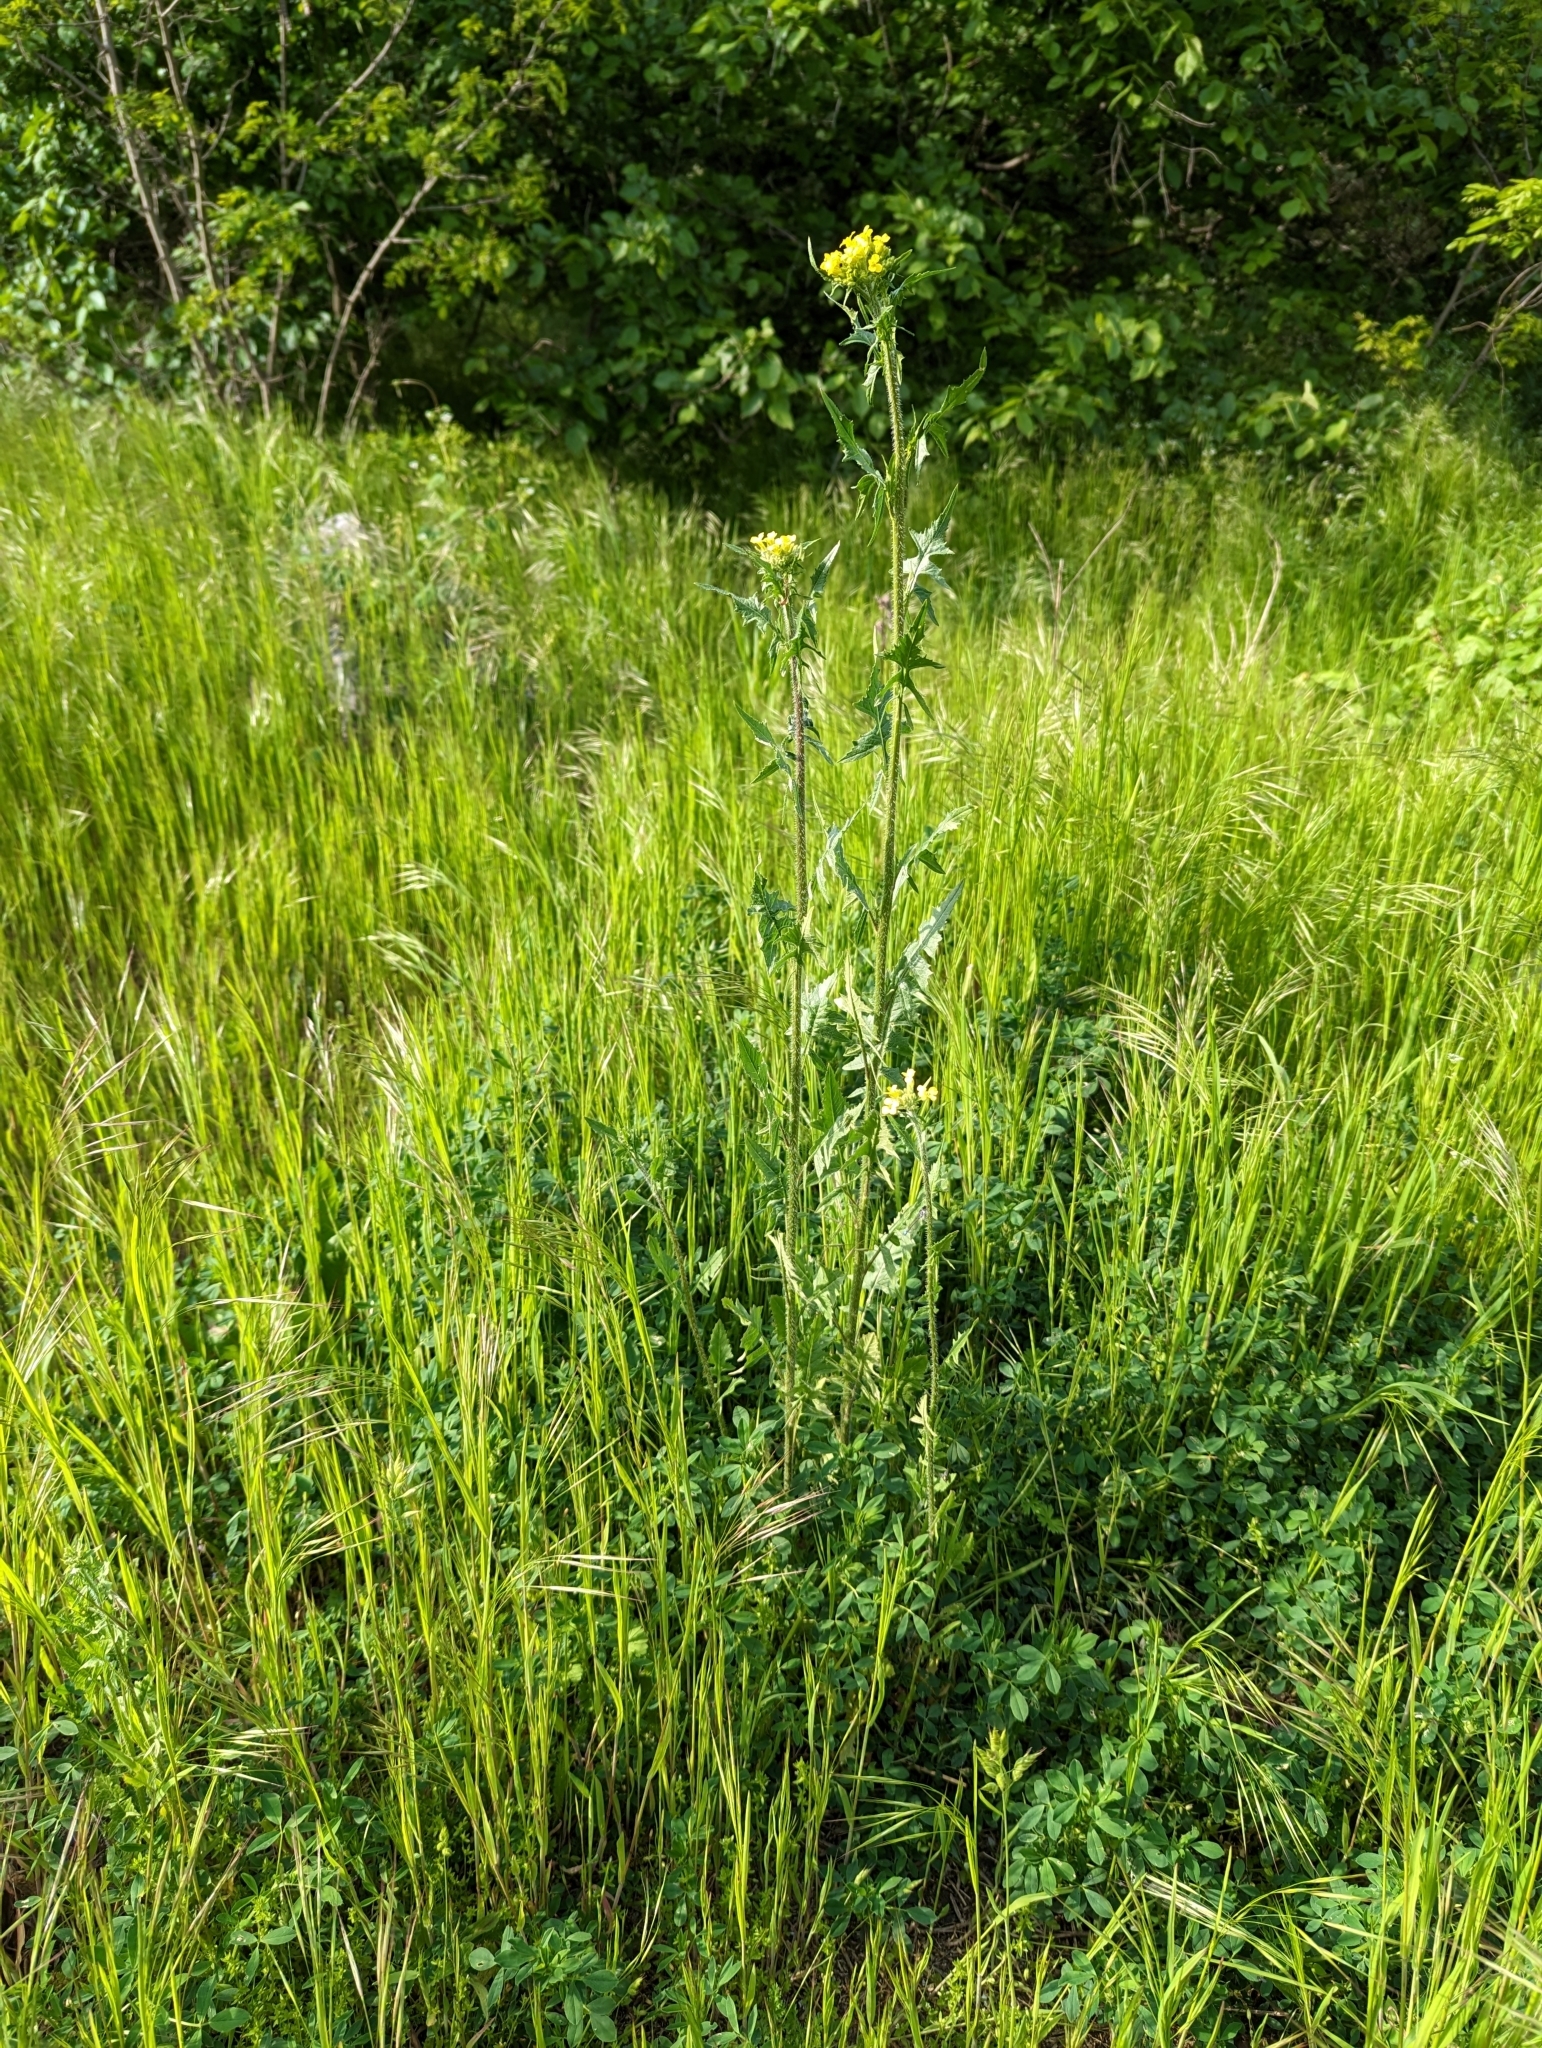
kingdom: Plantae
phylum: Tracheophyta
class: Magnoliopsida
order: Brassicales
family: Brassicaceae
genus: Sisymbrium
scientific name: Sisymbrium loeselii
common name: False london-rocket
